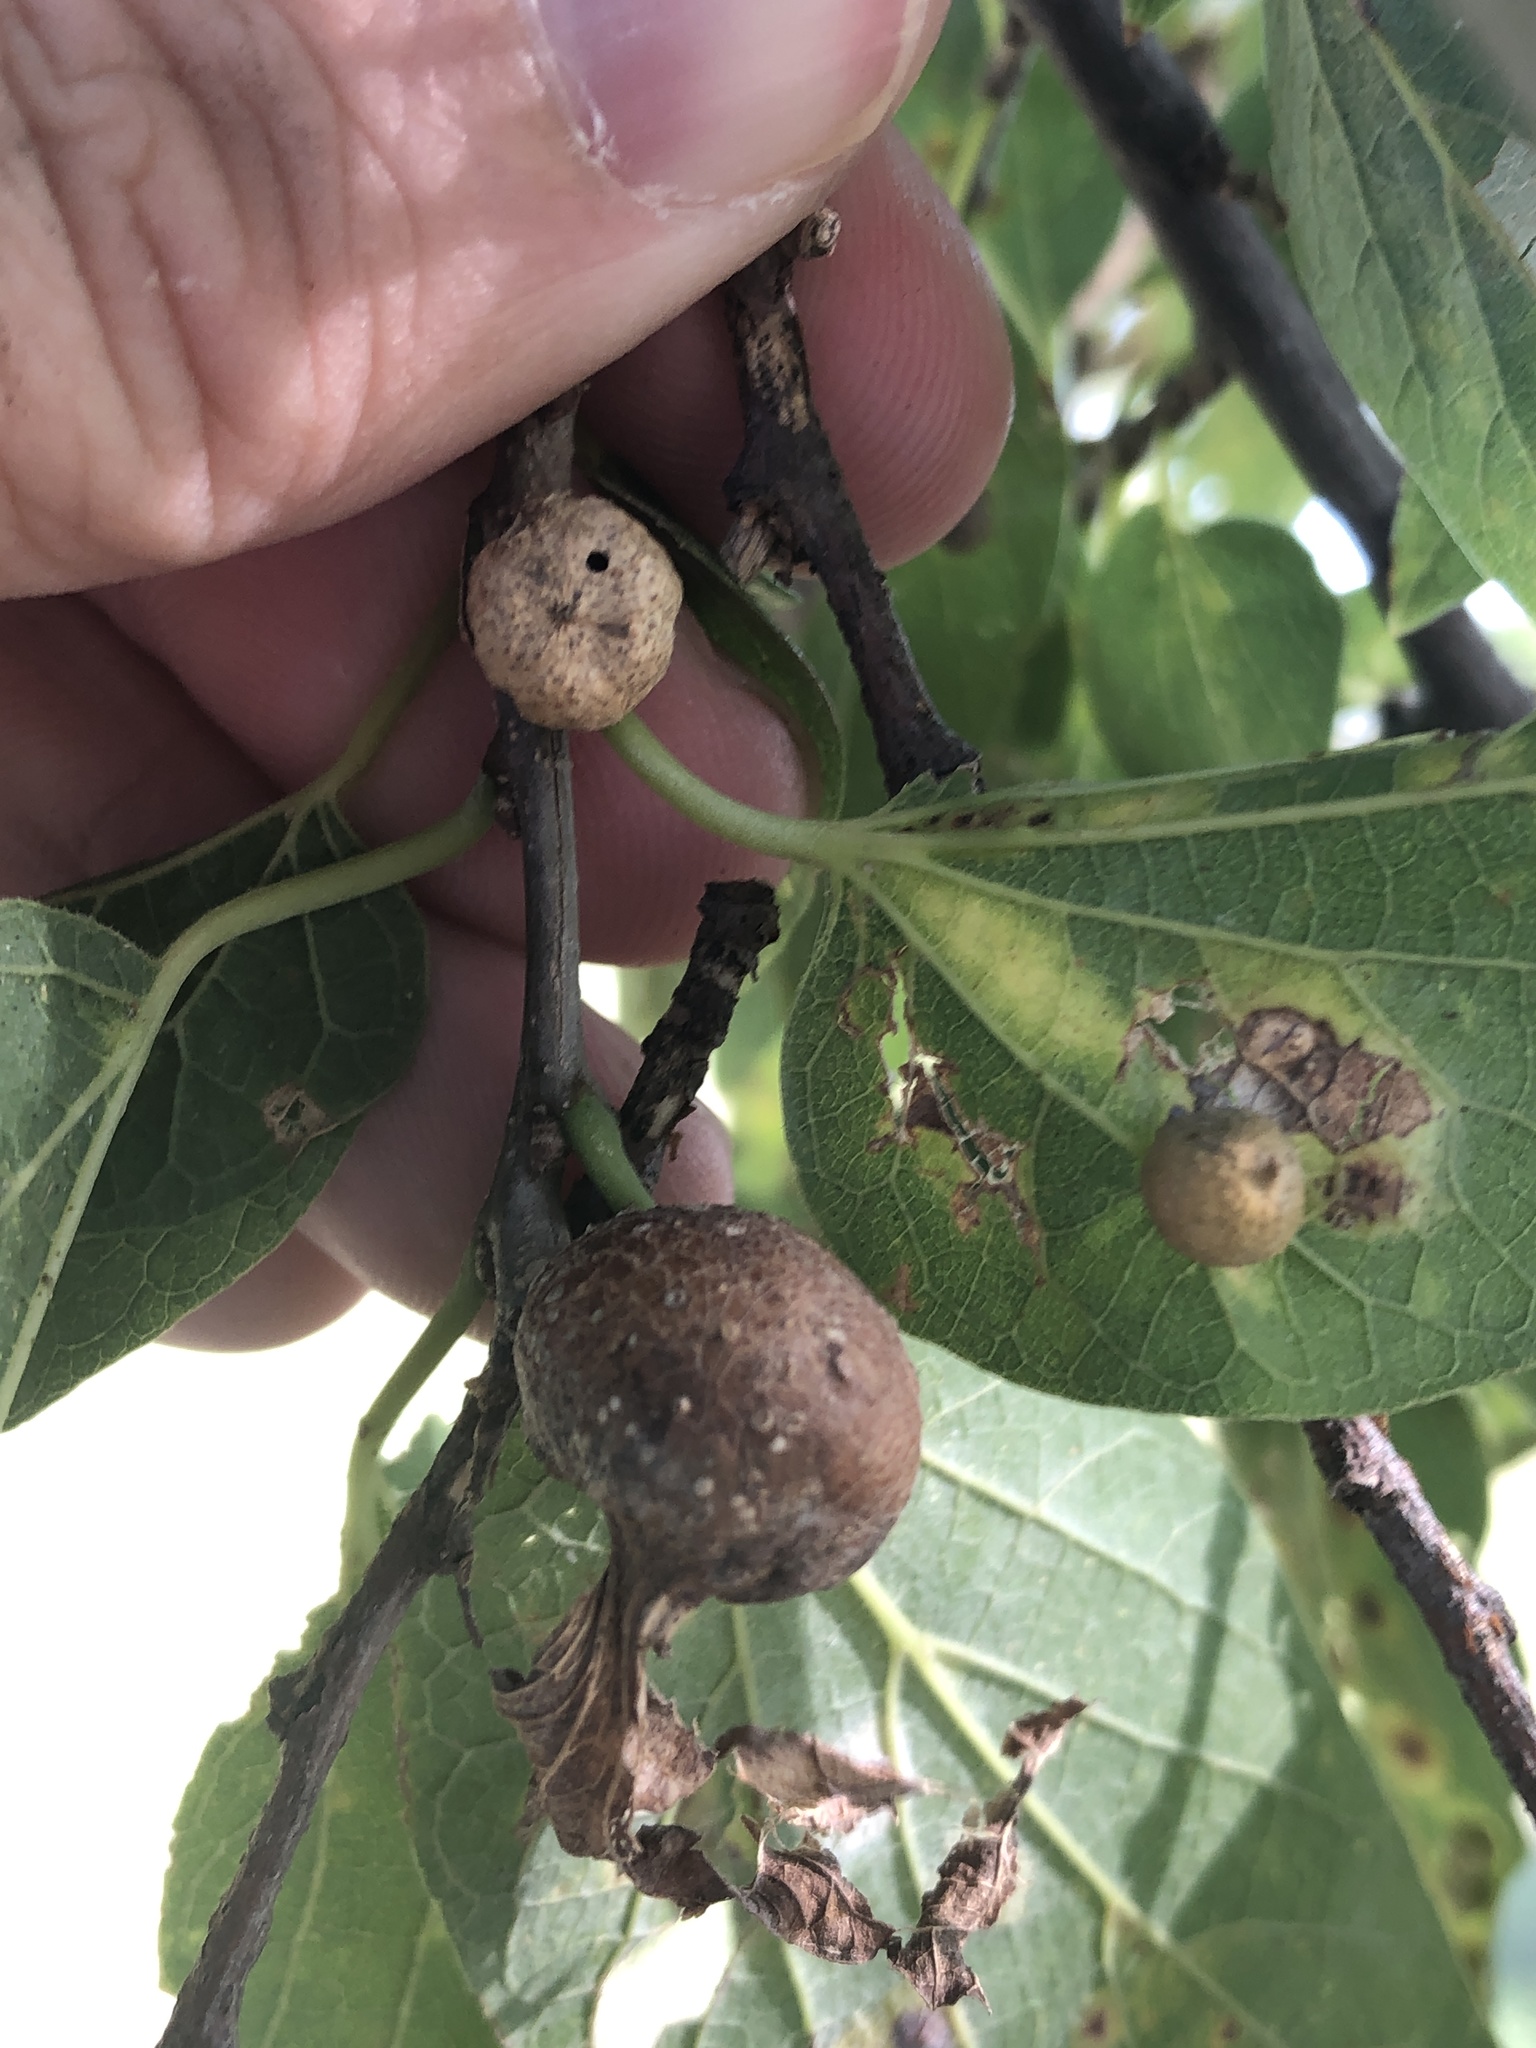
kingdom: Animalia
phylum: Arthropoda
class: Insecta
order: Hemiptera
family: Aphalaridae
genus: Pachypsylla
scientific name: Pachypsylla venusta
